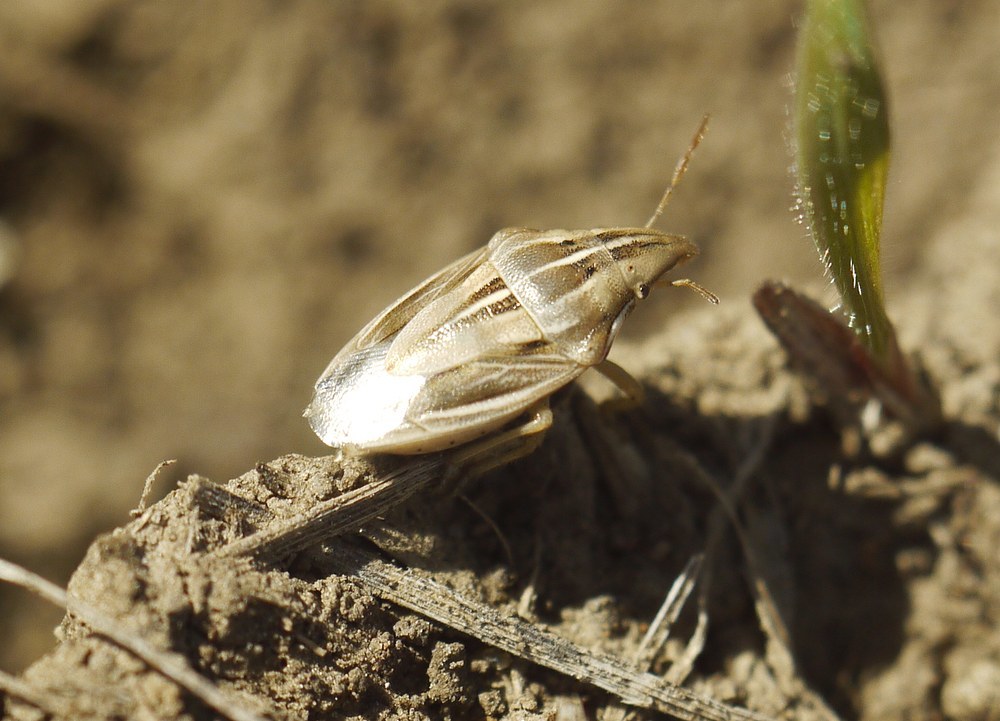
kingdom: Animalia
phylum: Arthropoda
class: Insecta
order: Hemiptera
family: Pentatomidae
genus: Aelia
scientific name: Aelia rostrata
